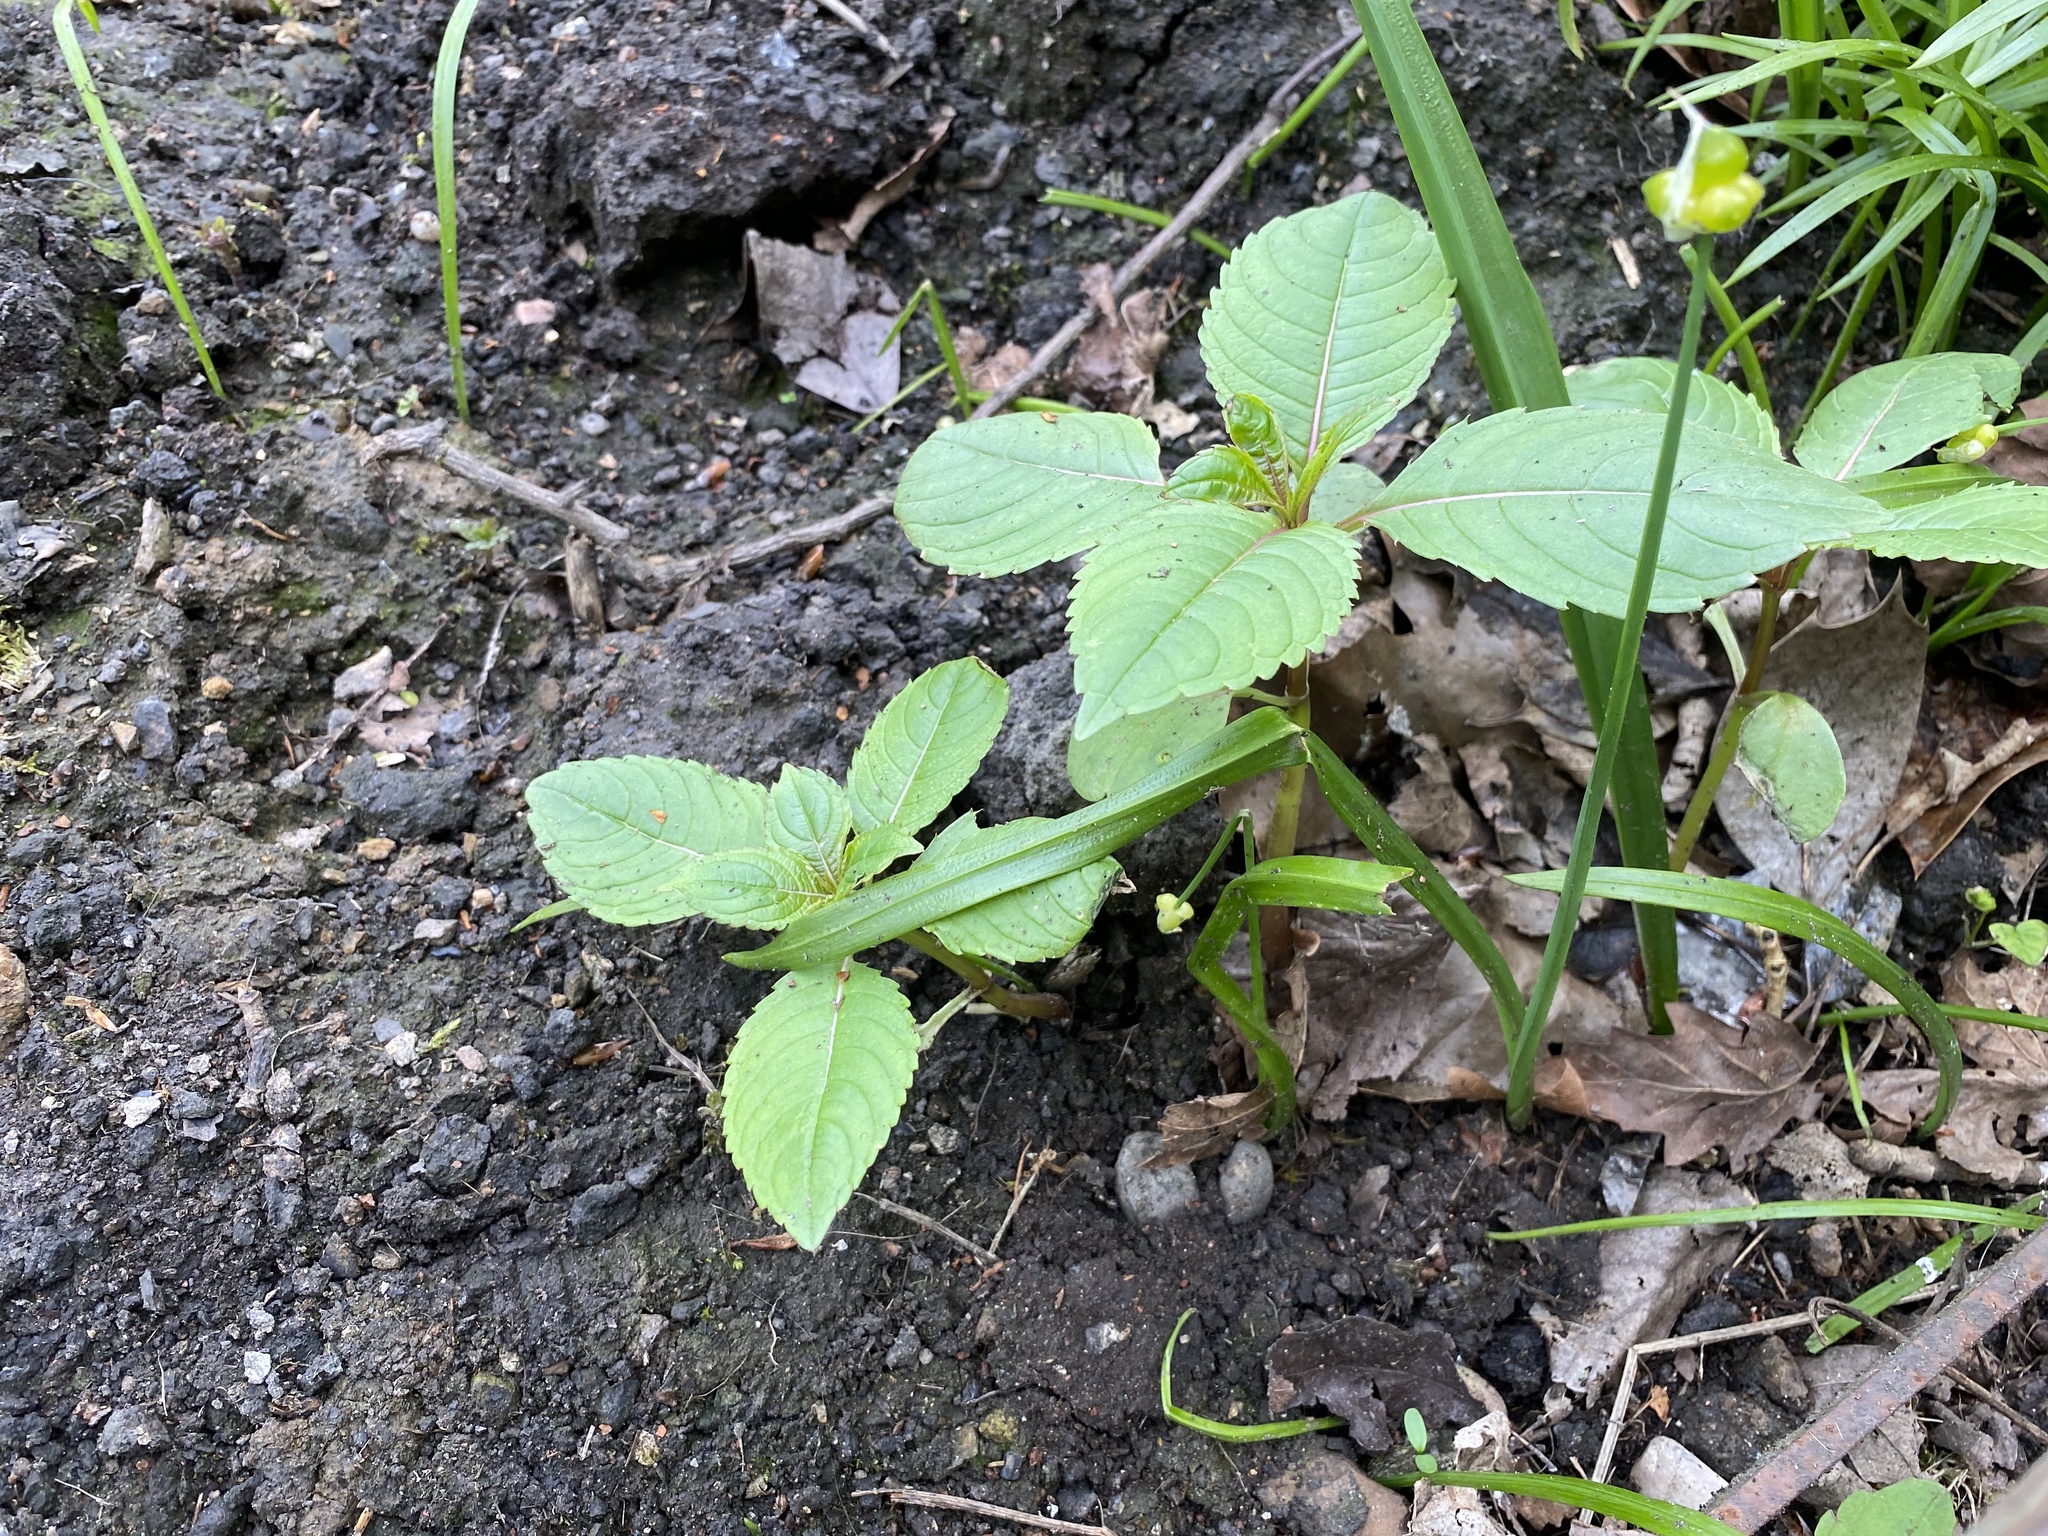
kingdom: Plantae
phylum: Tracheophyta
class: Magnoliopsida
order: Ericales
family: Balsaminaceae
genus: Impatiens
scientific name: Impatiens glandulifera
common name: Himalayan balsam
